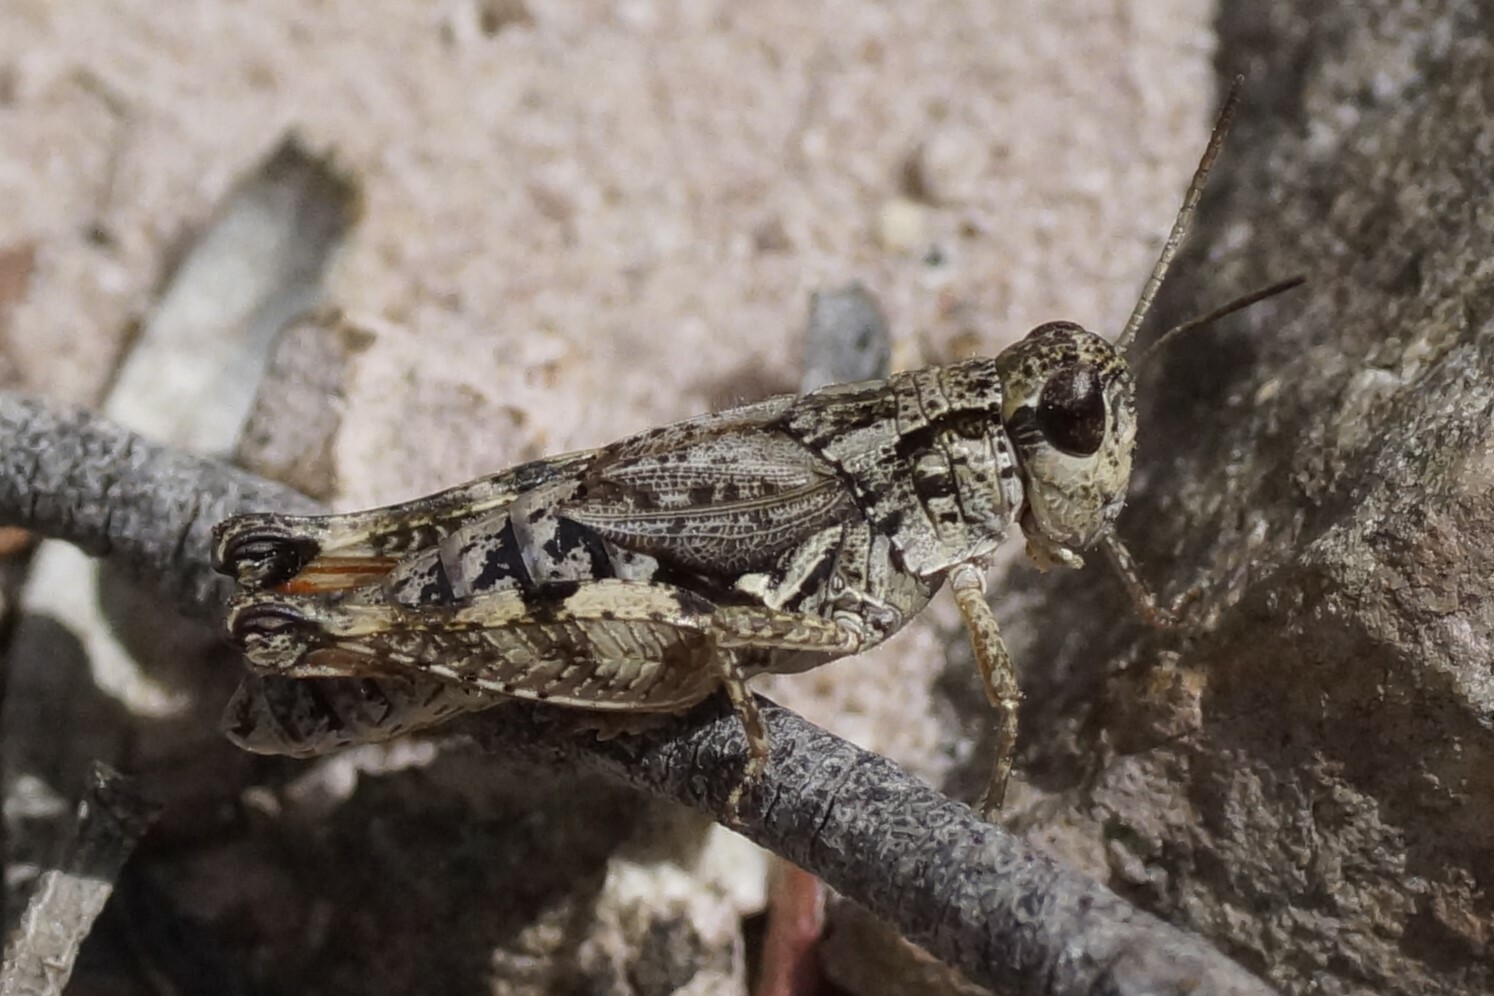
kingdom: Animalia
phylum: Arthropoda
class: Insecta
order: Orthoptera
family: Acrididae
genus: Phaulacridium
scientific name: Phaulacridium vittatum
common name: Wingless grasshopper
